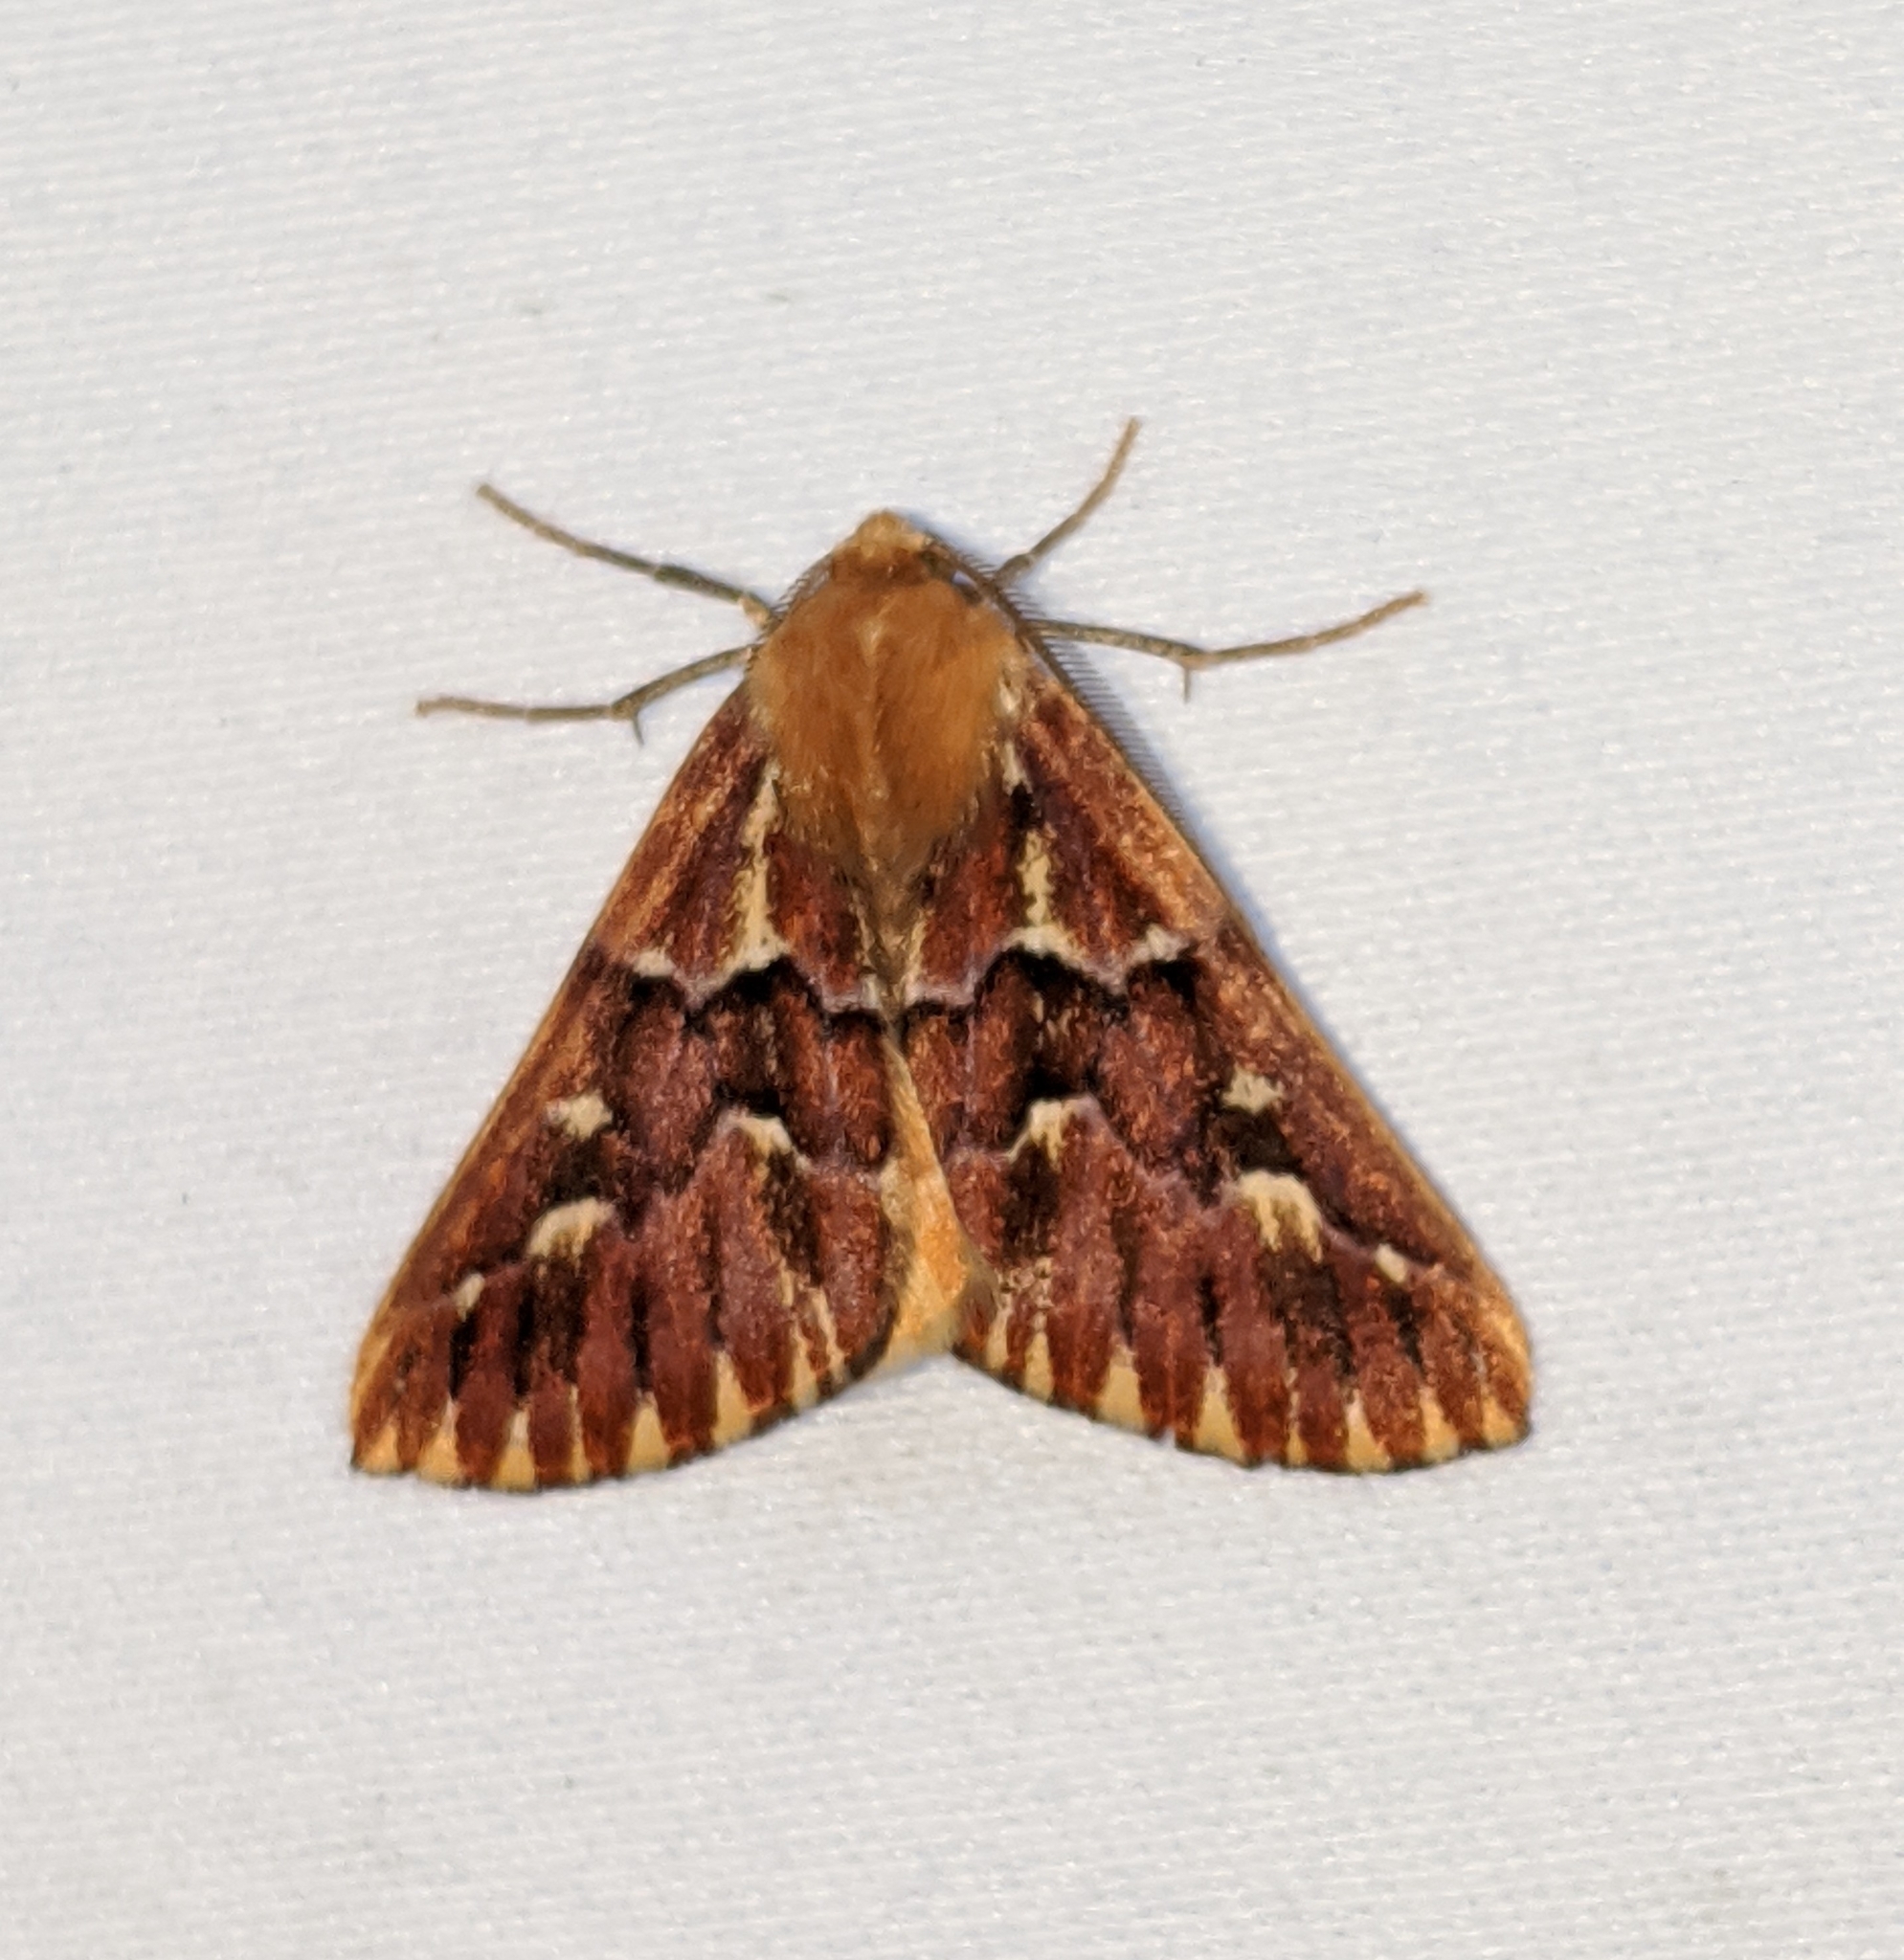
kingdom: Animalia
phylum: Arthropoda
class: Insecta
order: Lepidoptera
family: Geometridae
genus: Caripeta
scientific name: Caripeta aequaliaria
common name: Red girdle moth
